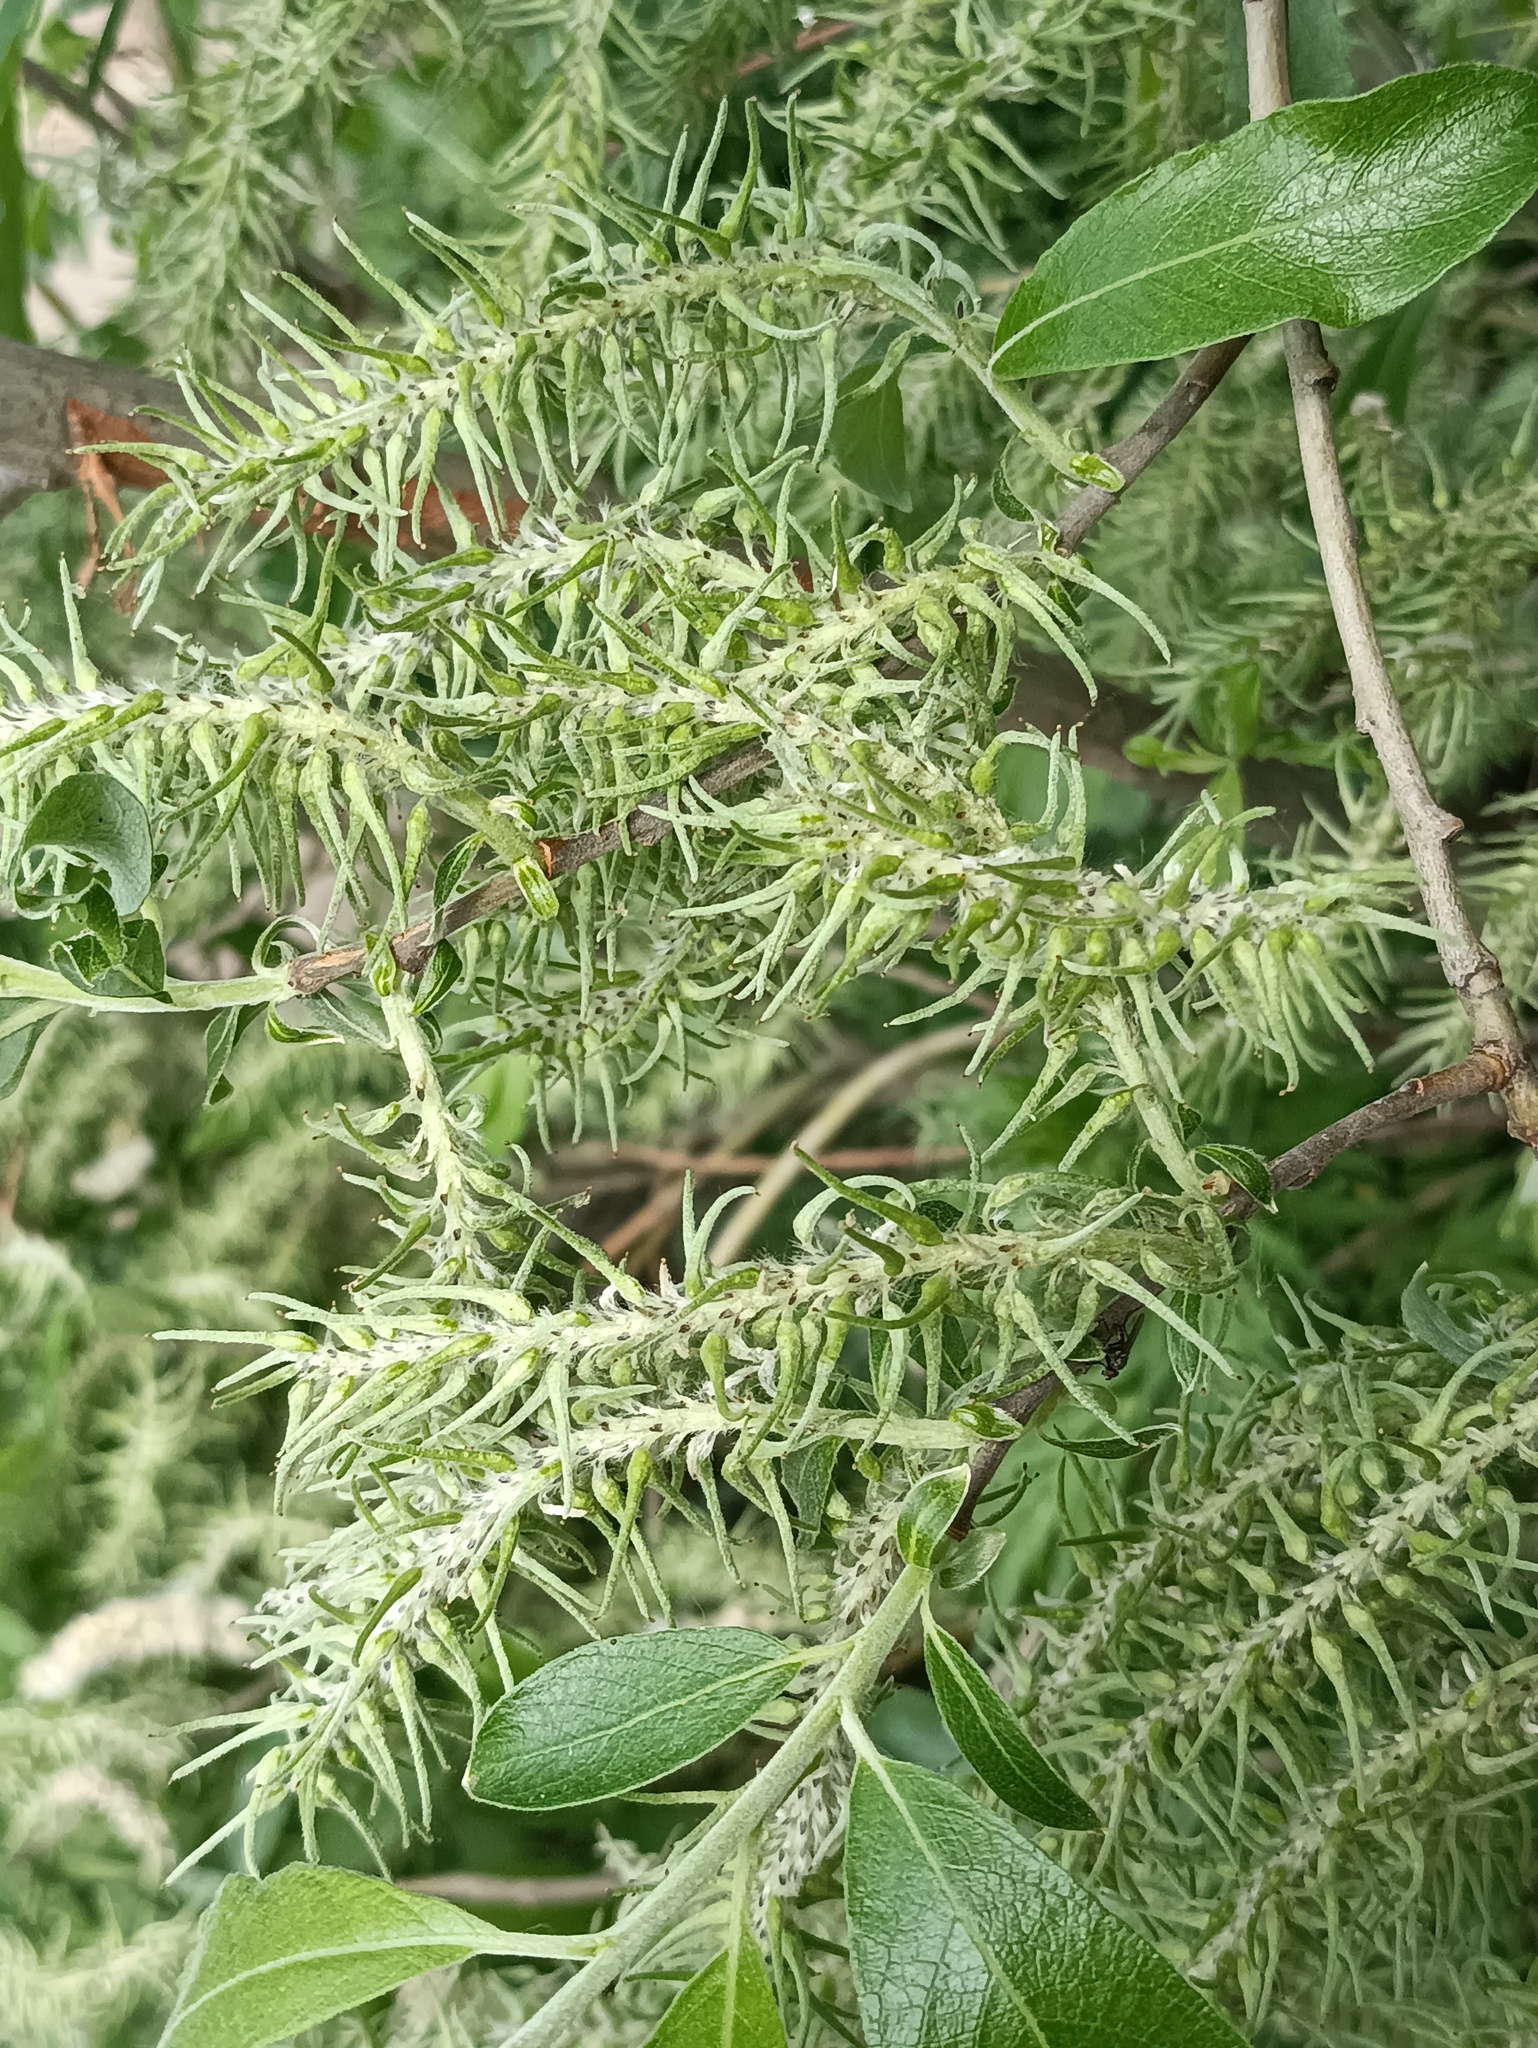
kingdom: Plantae
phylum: Tracheophyta
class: Magnoliopsida
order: Malpighiales
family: Salicaceae
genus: Salix
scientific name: Salix cinerea
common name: Common sallow
